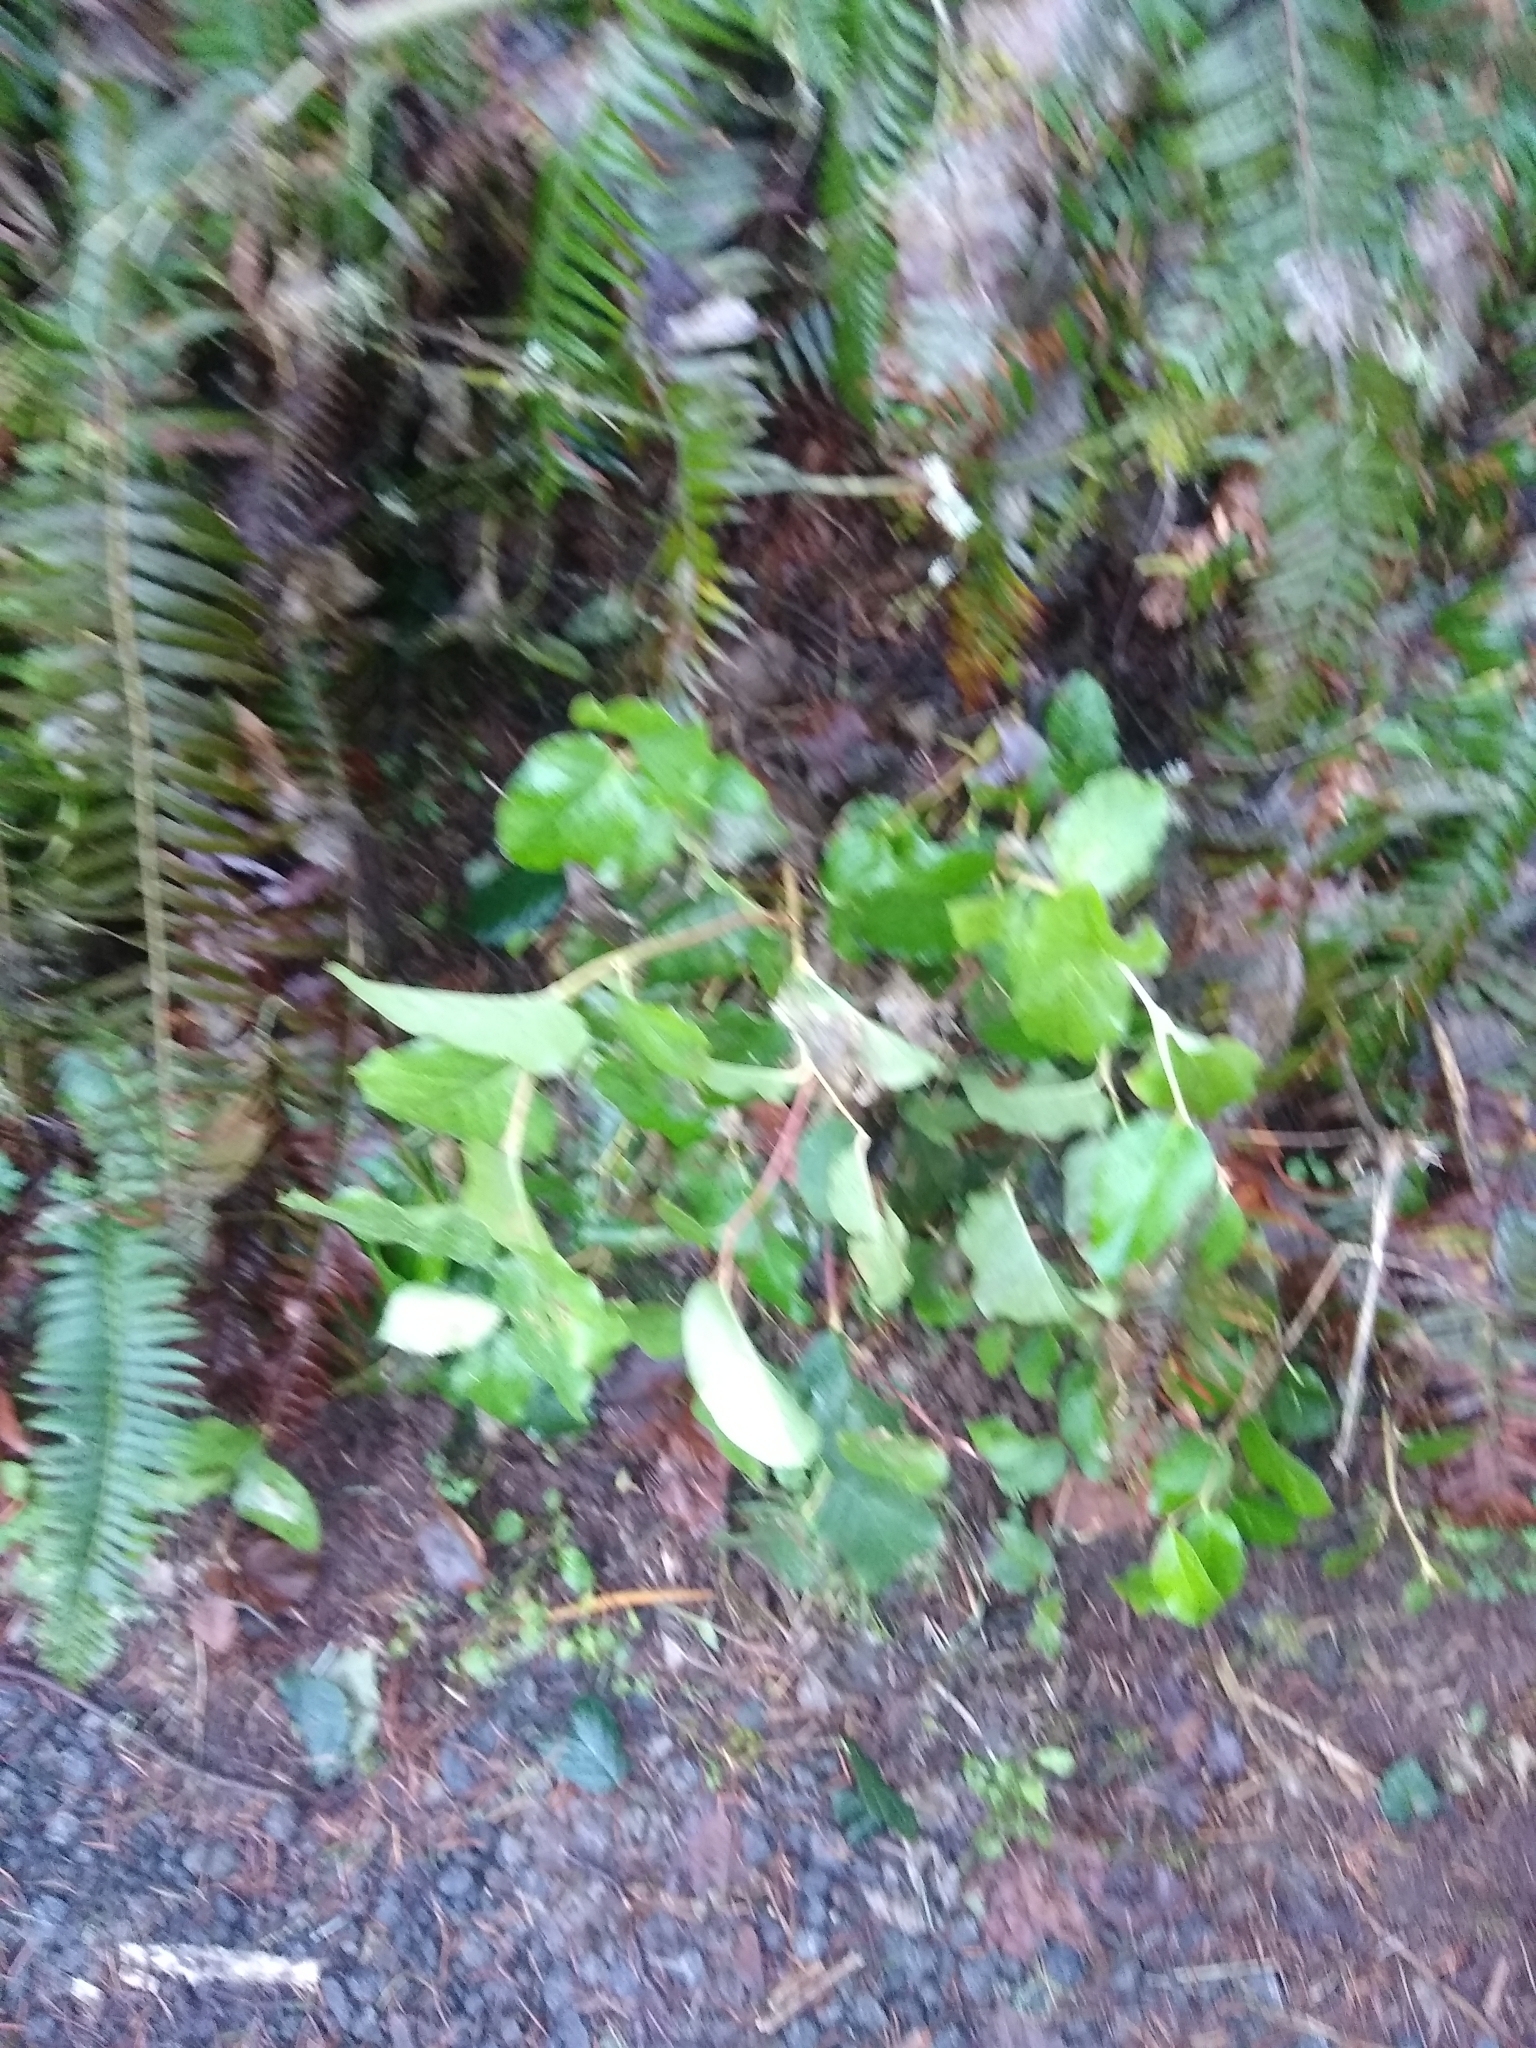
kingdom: Plantae
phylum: Tracheophyta
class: Magnoliopsida
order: Ericales
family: Ericaceae
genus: Gaultheria
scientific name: Gaultheria shallon
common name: Shallon
